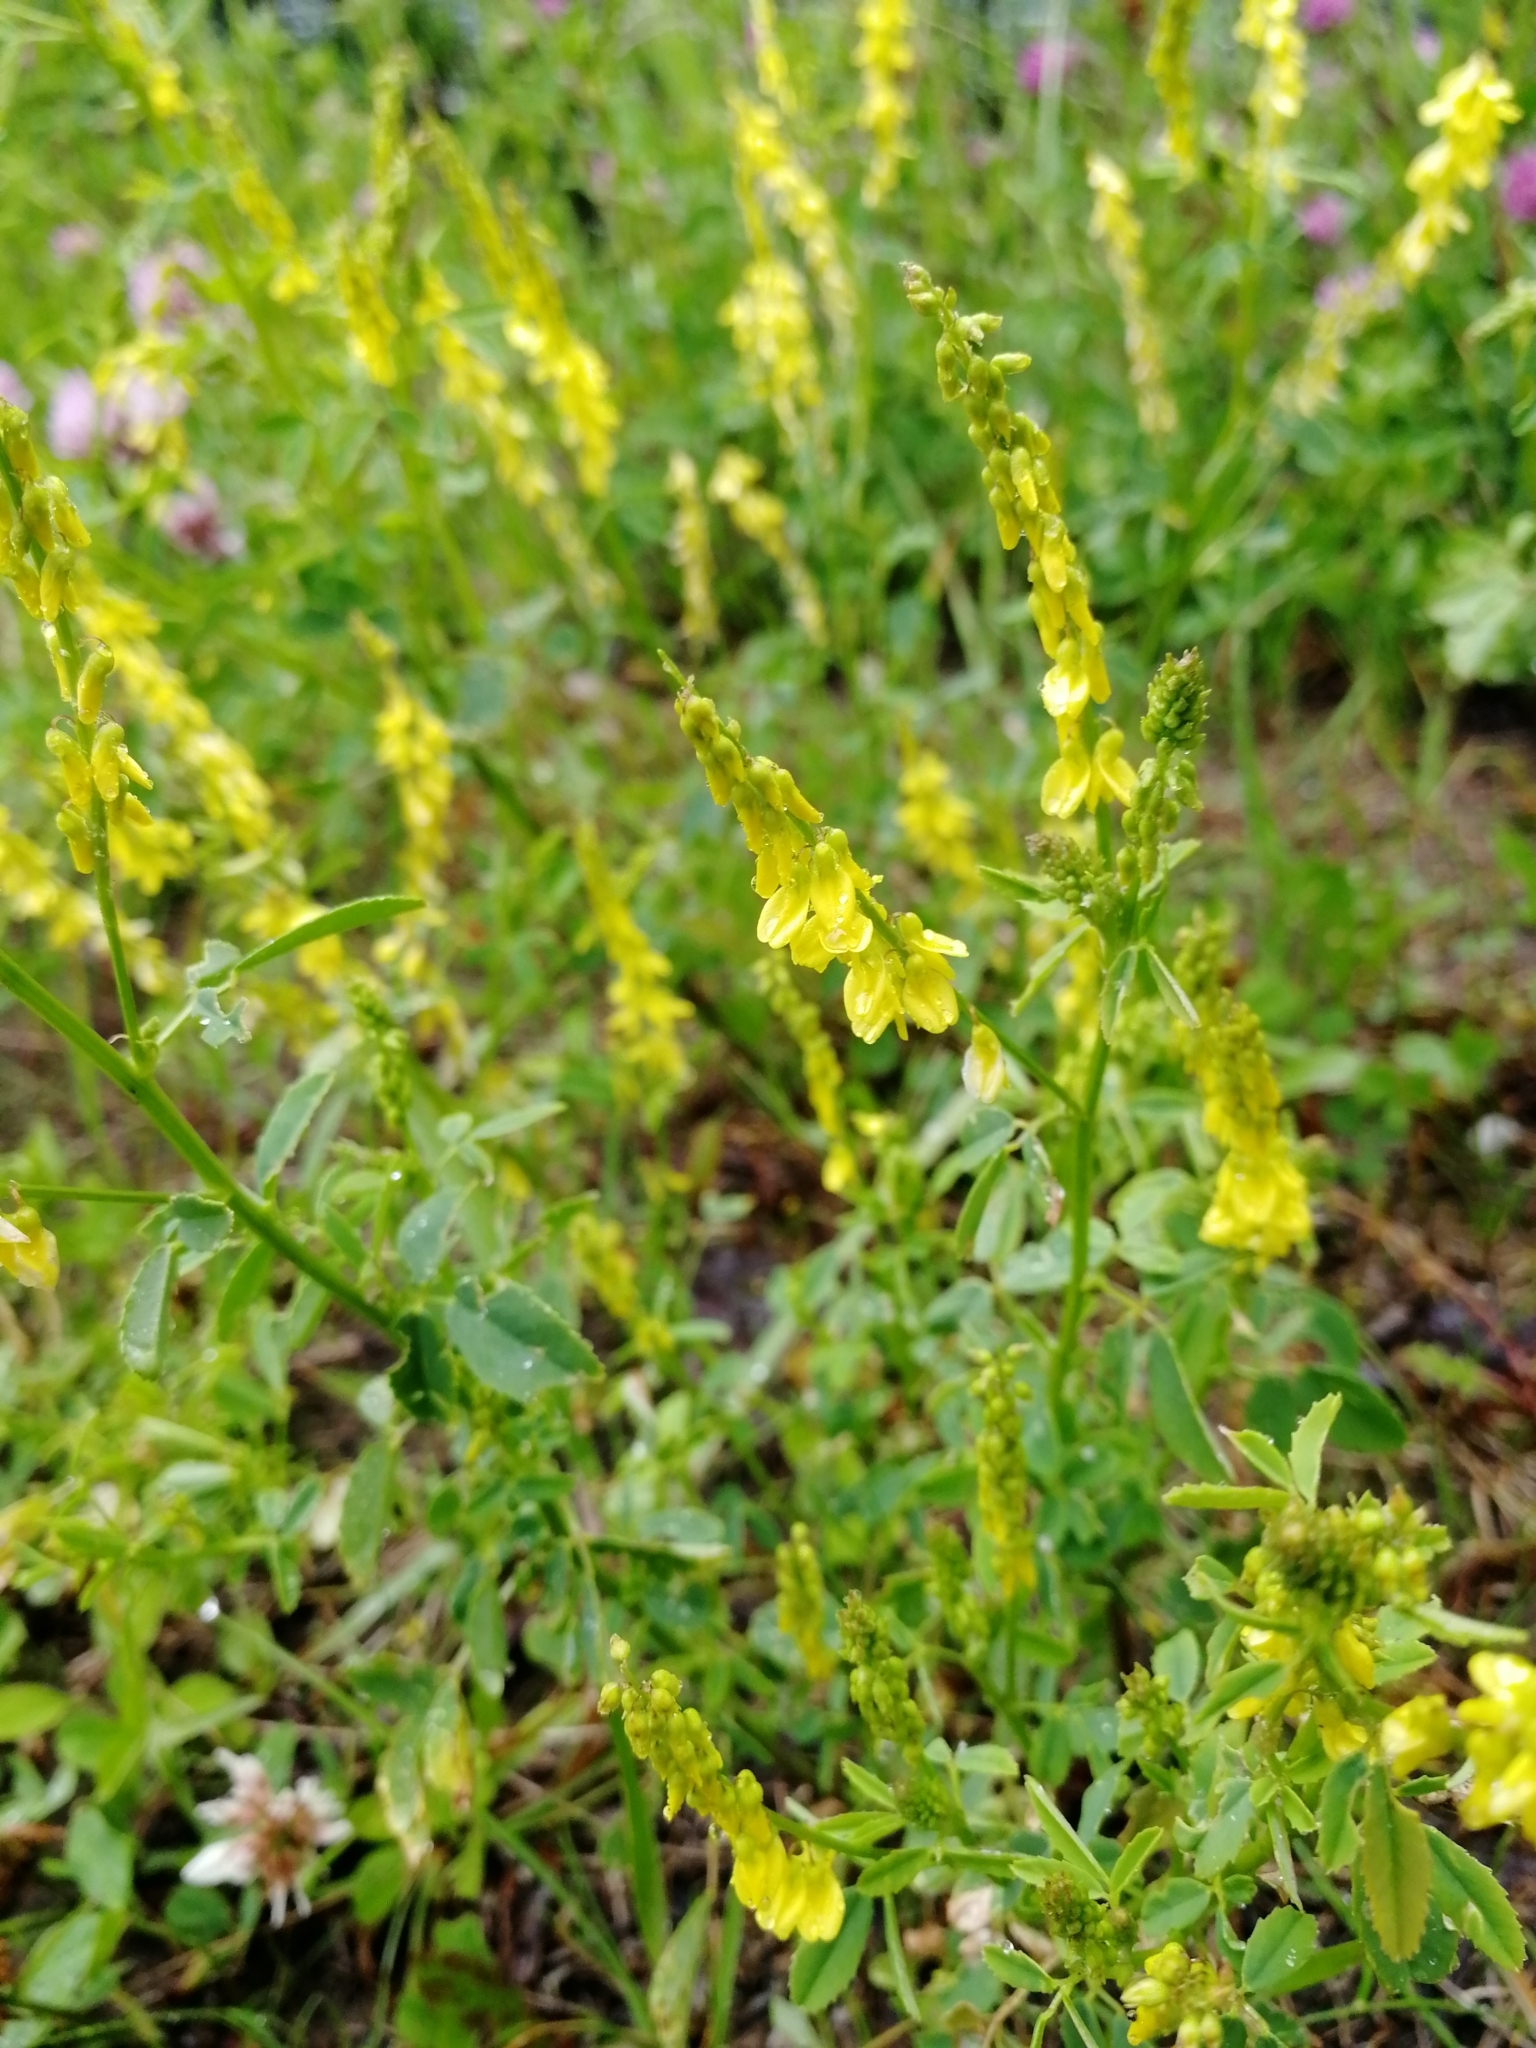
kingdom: Plantae
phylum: Tracheophyta
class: Magnoliopsida
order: Fabales
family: Fabaceae
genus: Melilotus
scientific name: Melilotus officinalis
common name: Sweetclover
